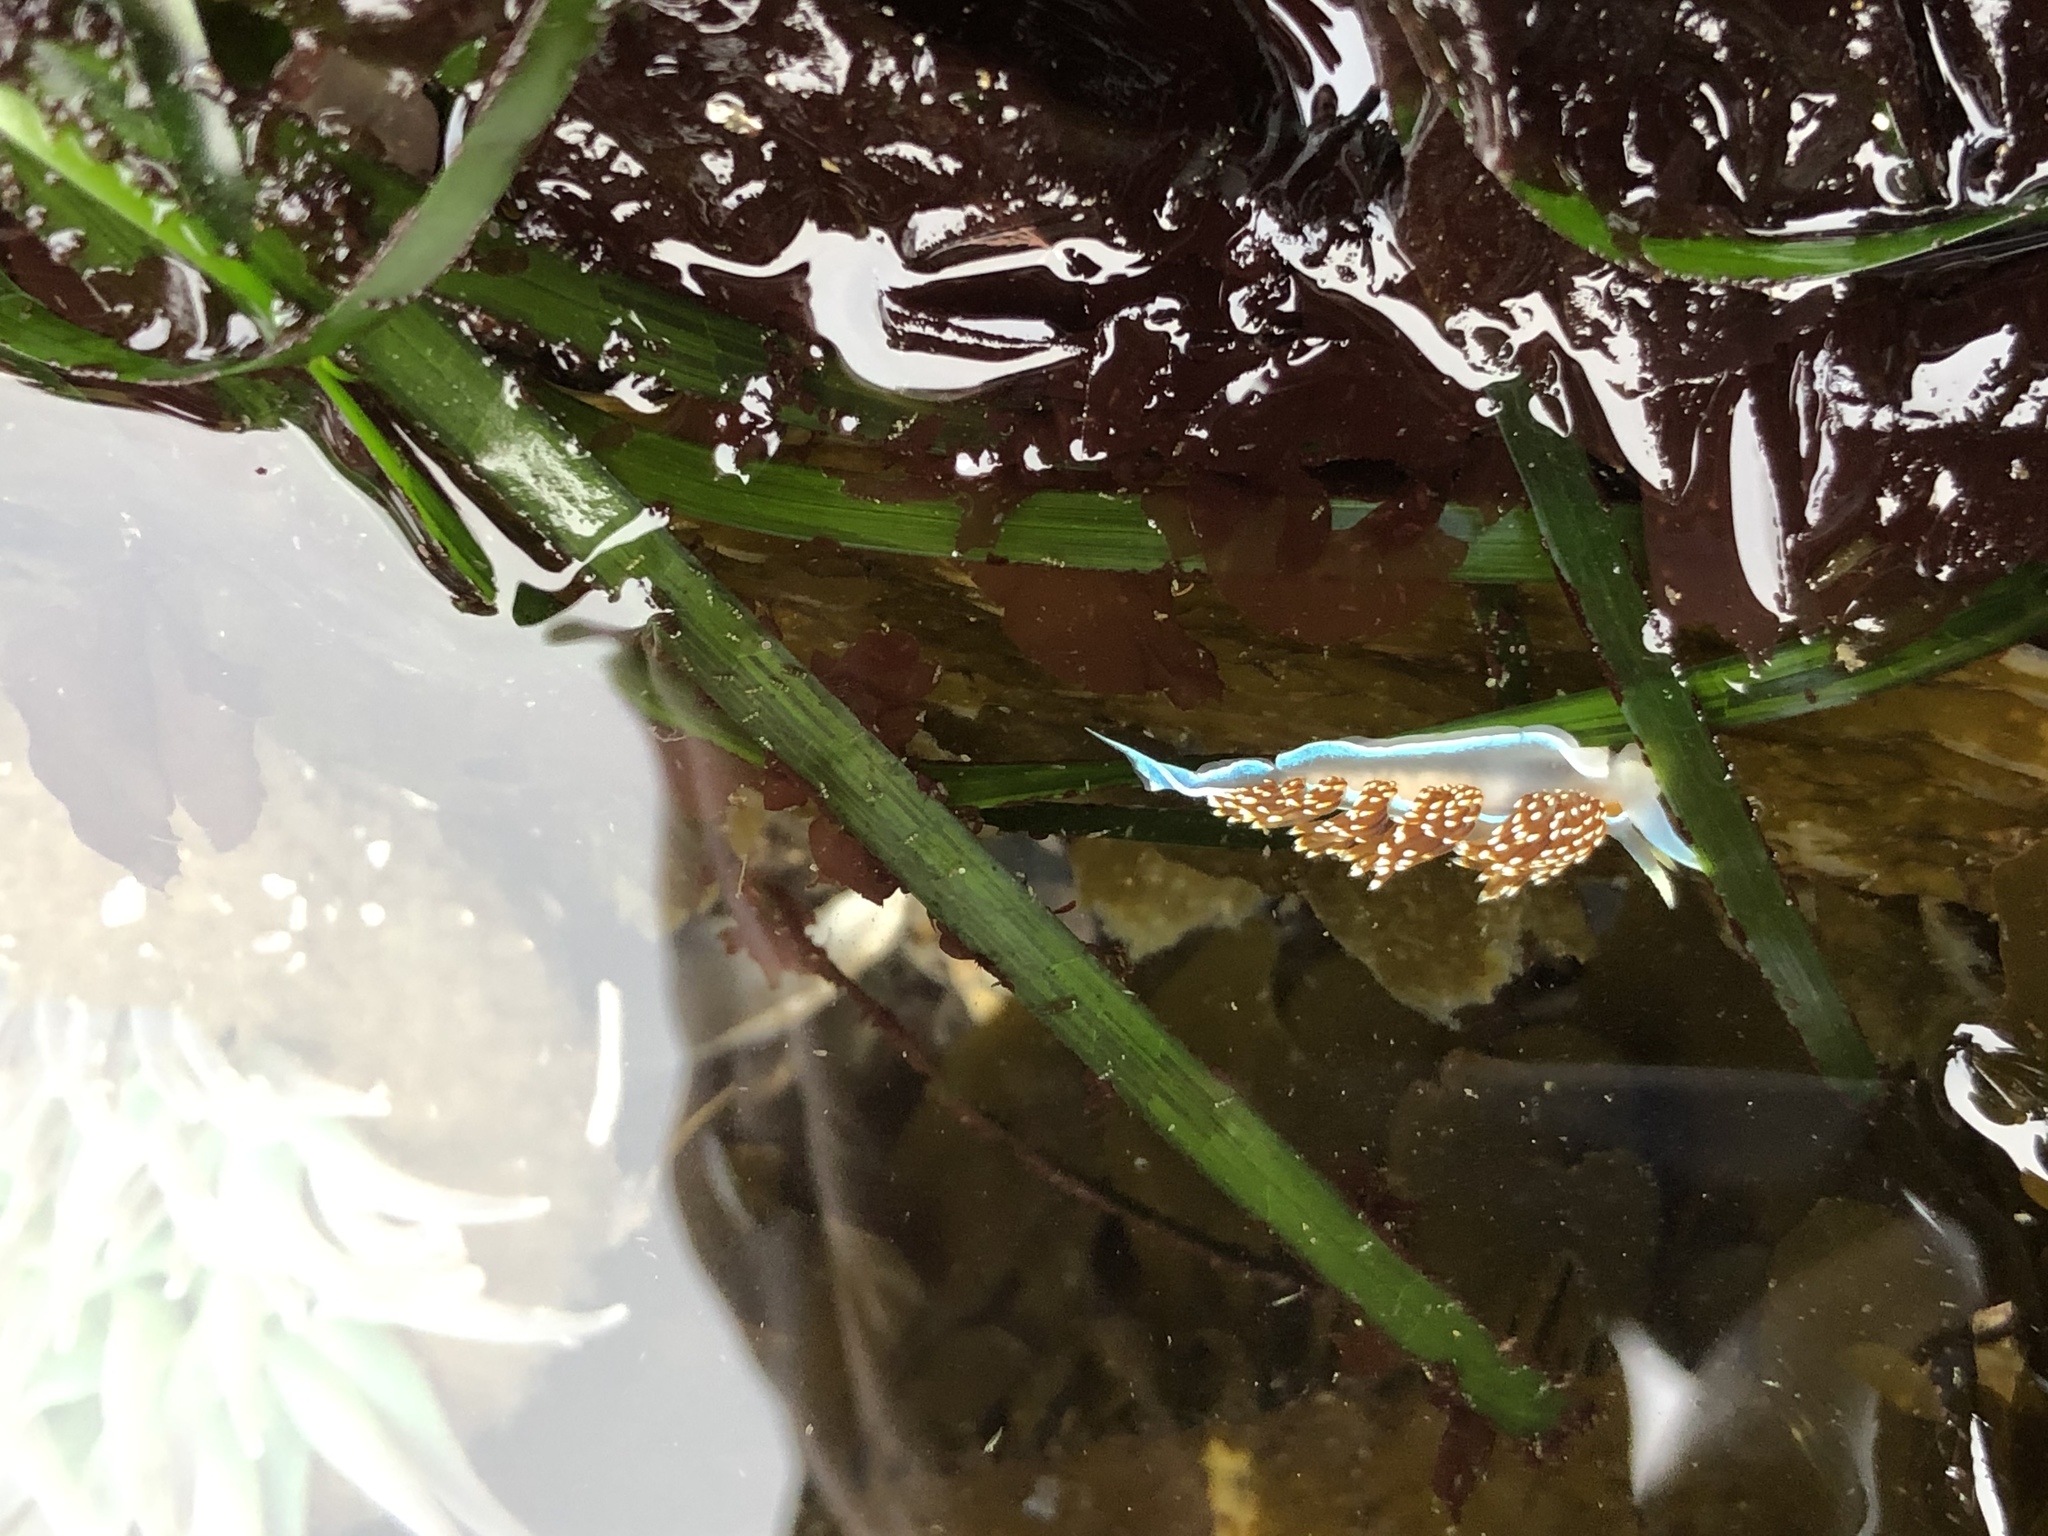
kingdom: Animalia
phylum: Mollusca
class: Gastropoda
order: Nudibranchia
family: Myrrhinidae
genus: Hermissenda
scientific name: Hermissenda opalescens
